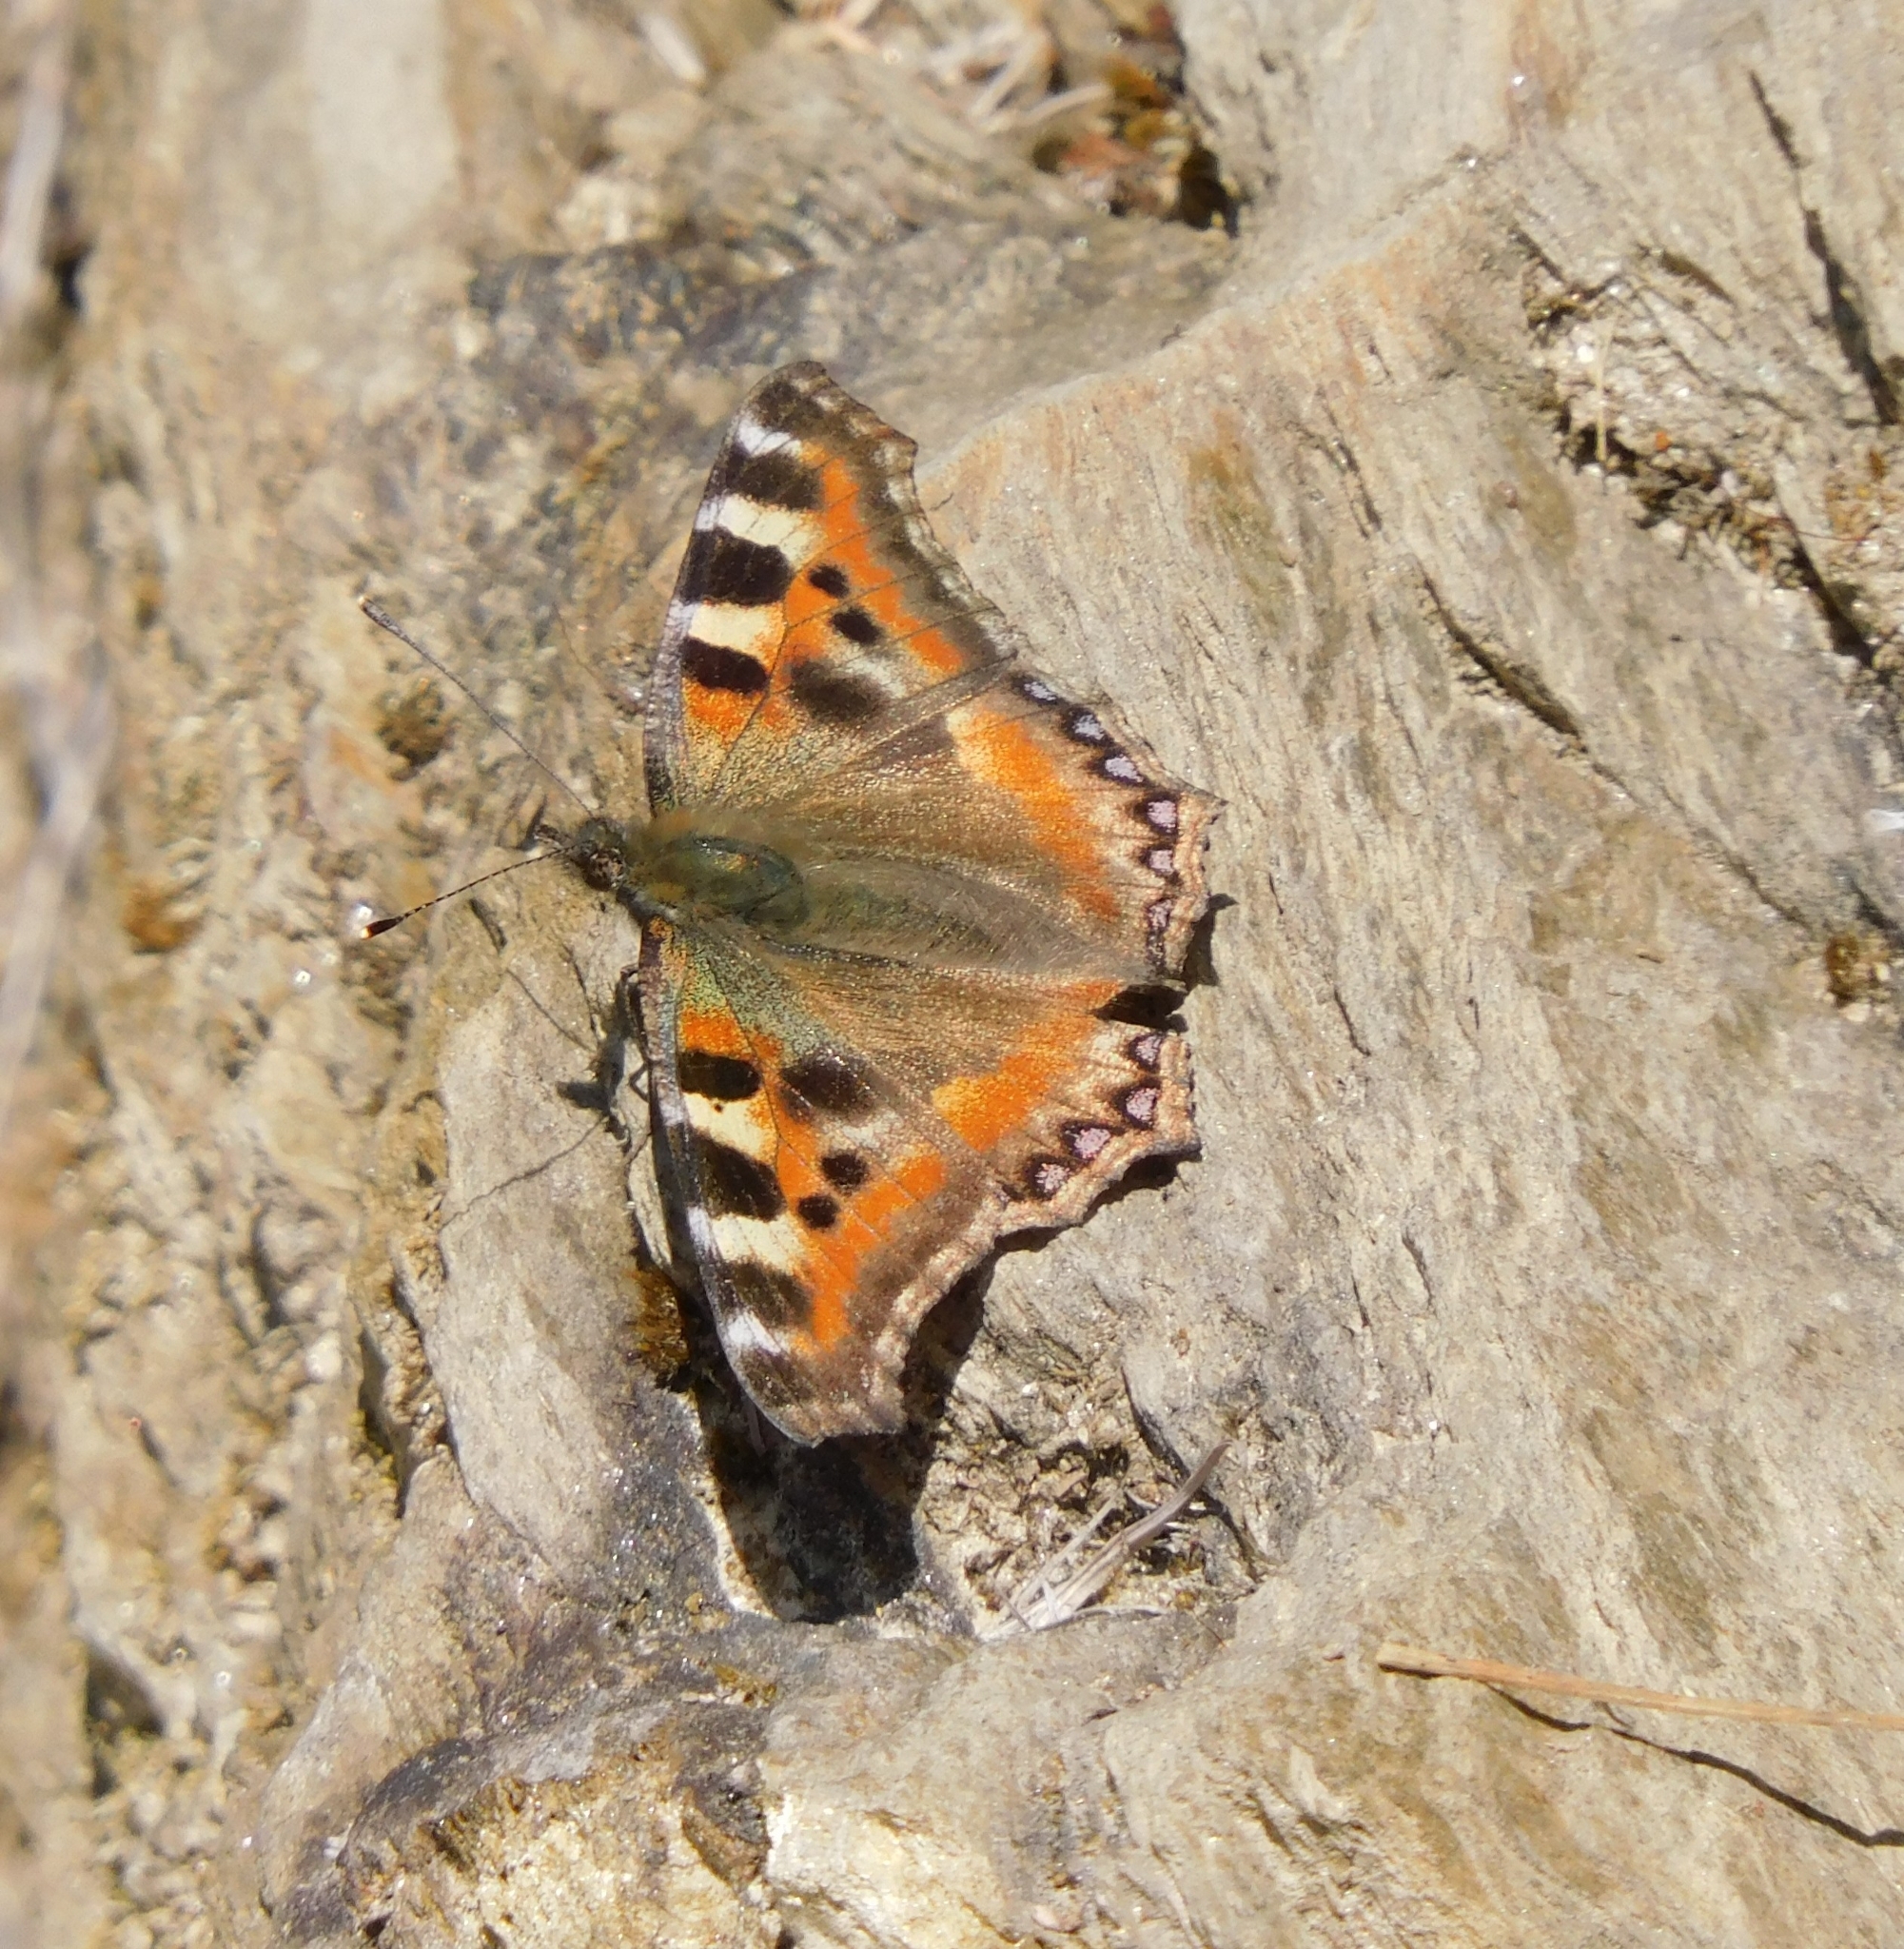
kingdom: Animalia
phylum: Arthropoda
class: Insecta
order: Lepidoptera
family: Nymphalidae
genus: Aglais
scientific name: Aglais caschmirensis
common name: Indian tortoiseshell
